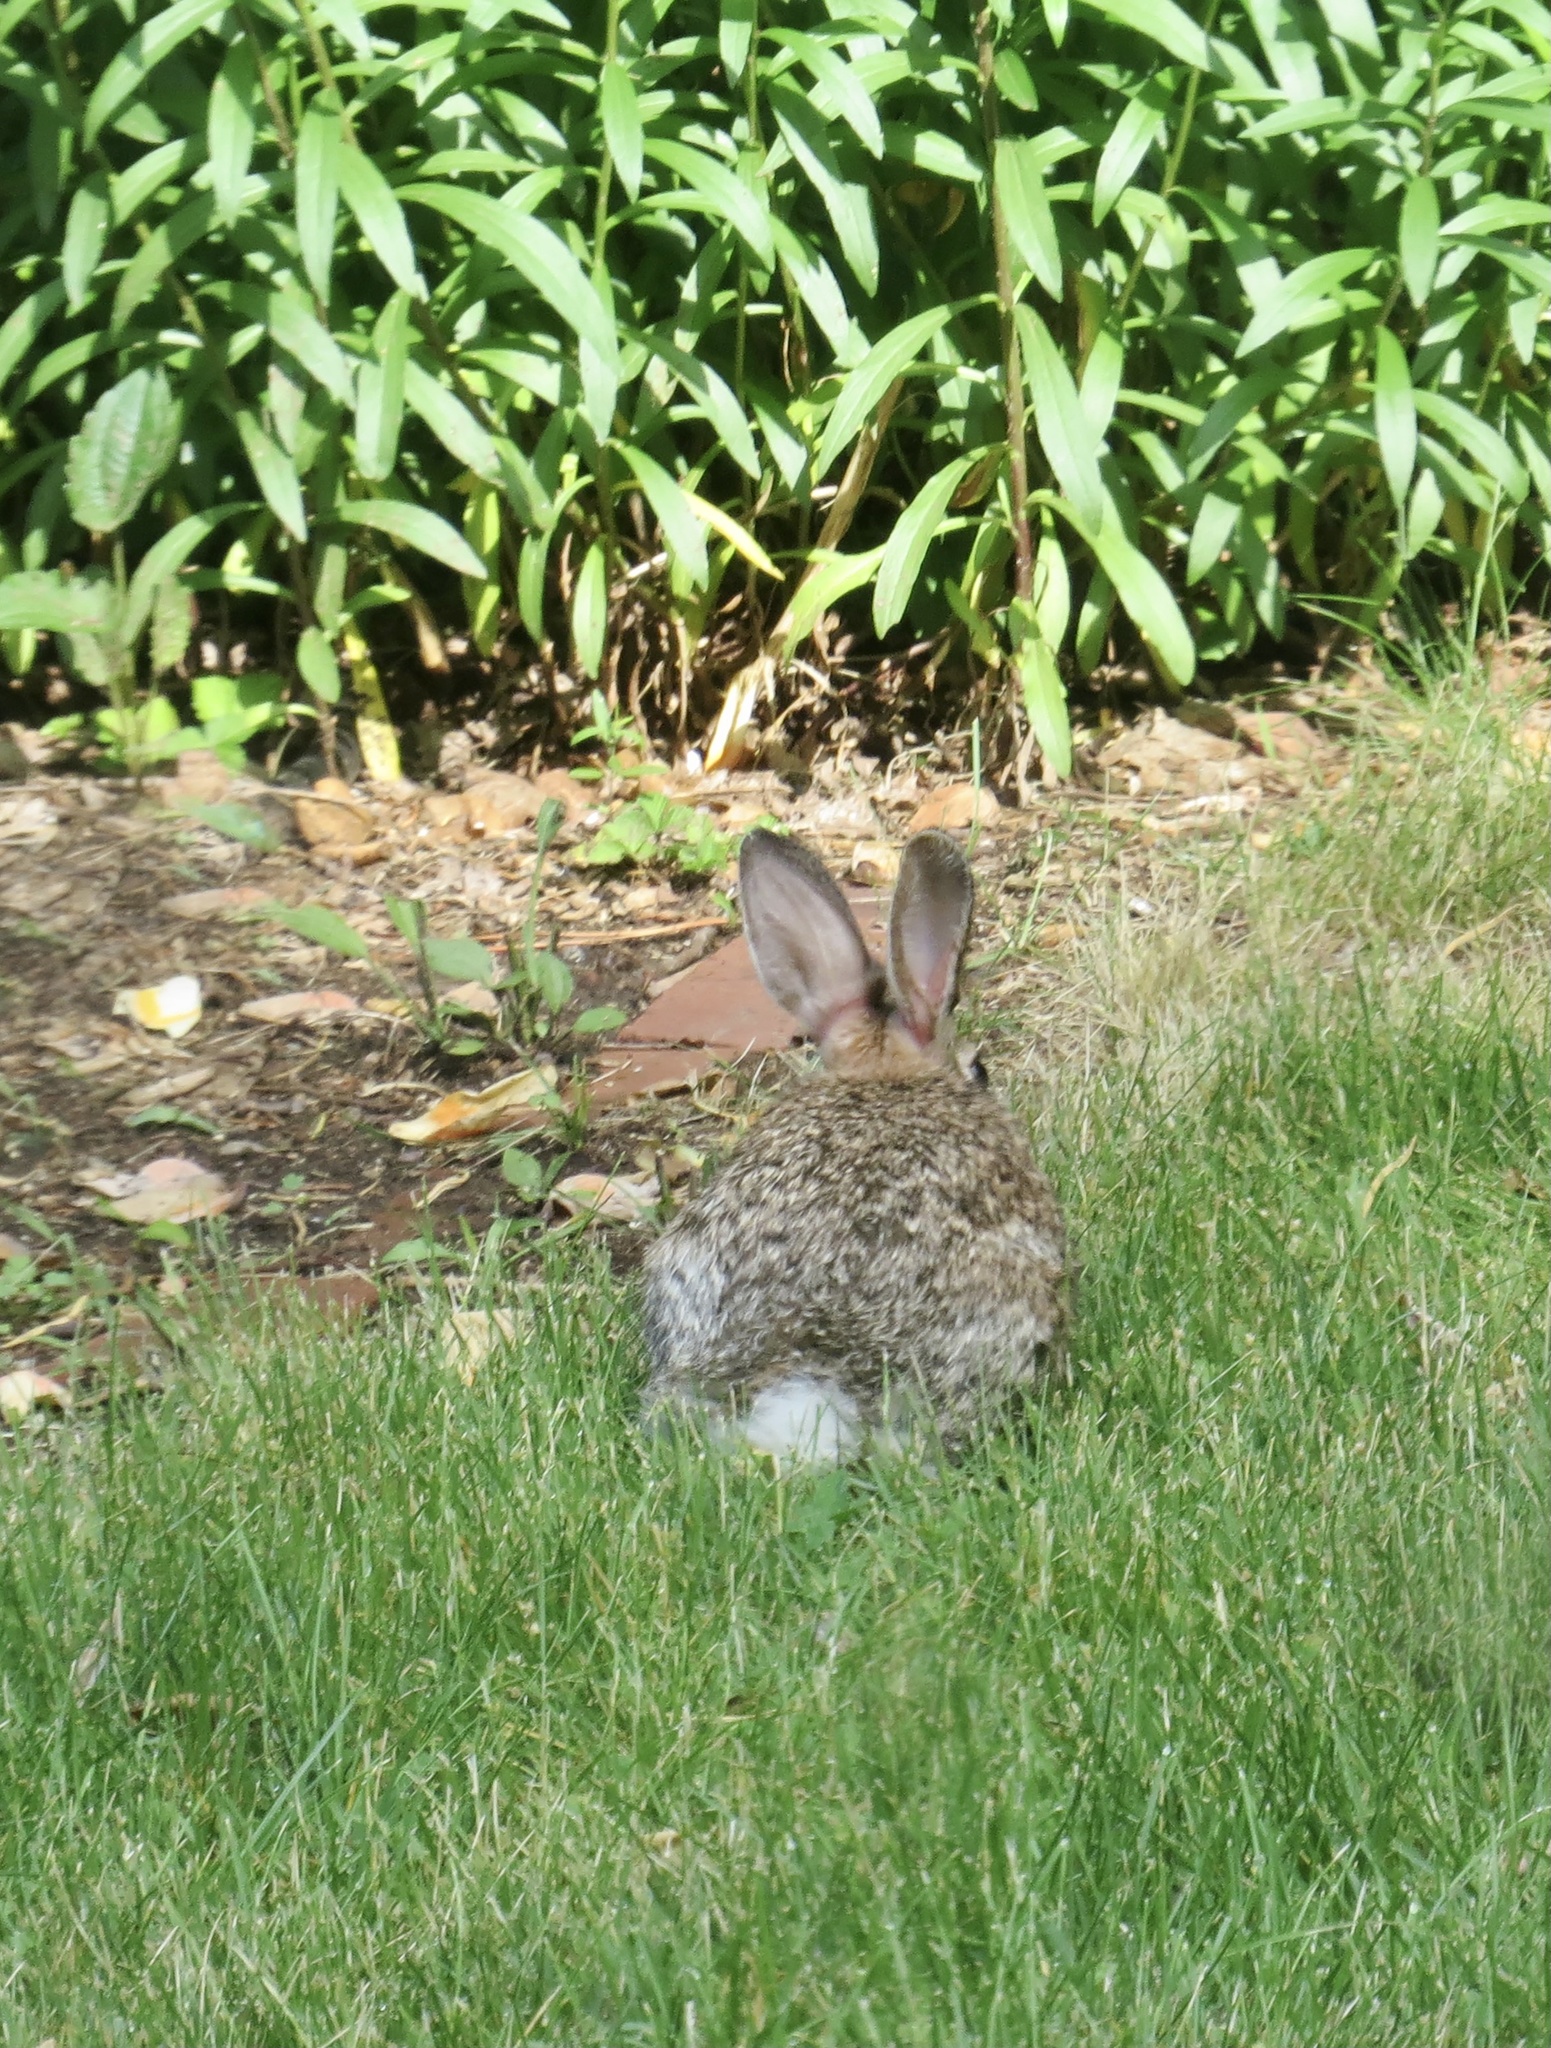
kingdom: Animalia
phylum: Chordata
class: Mammalia
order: Lagomorpha
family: Leporidae
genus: Sylvilagus
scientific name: Sylvilagus floridanus
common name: Eastern cottontail
